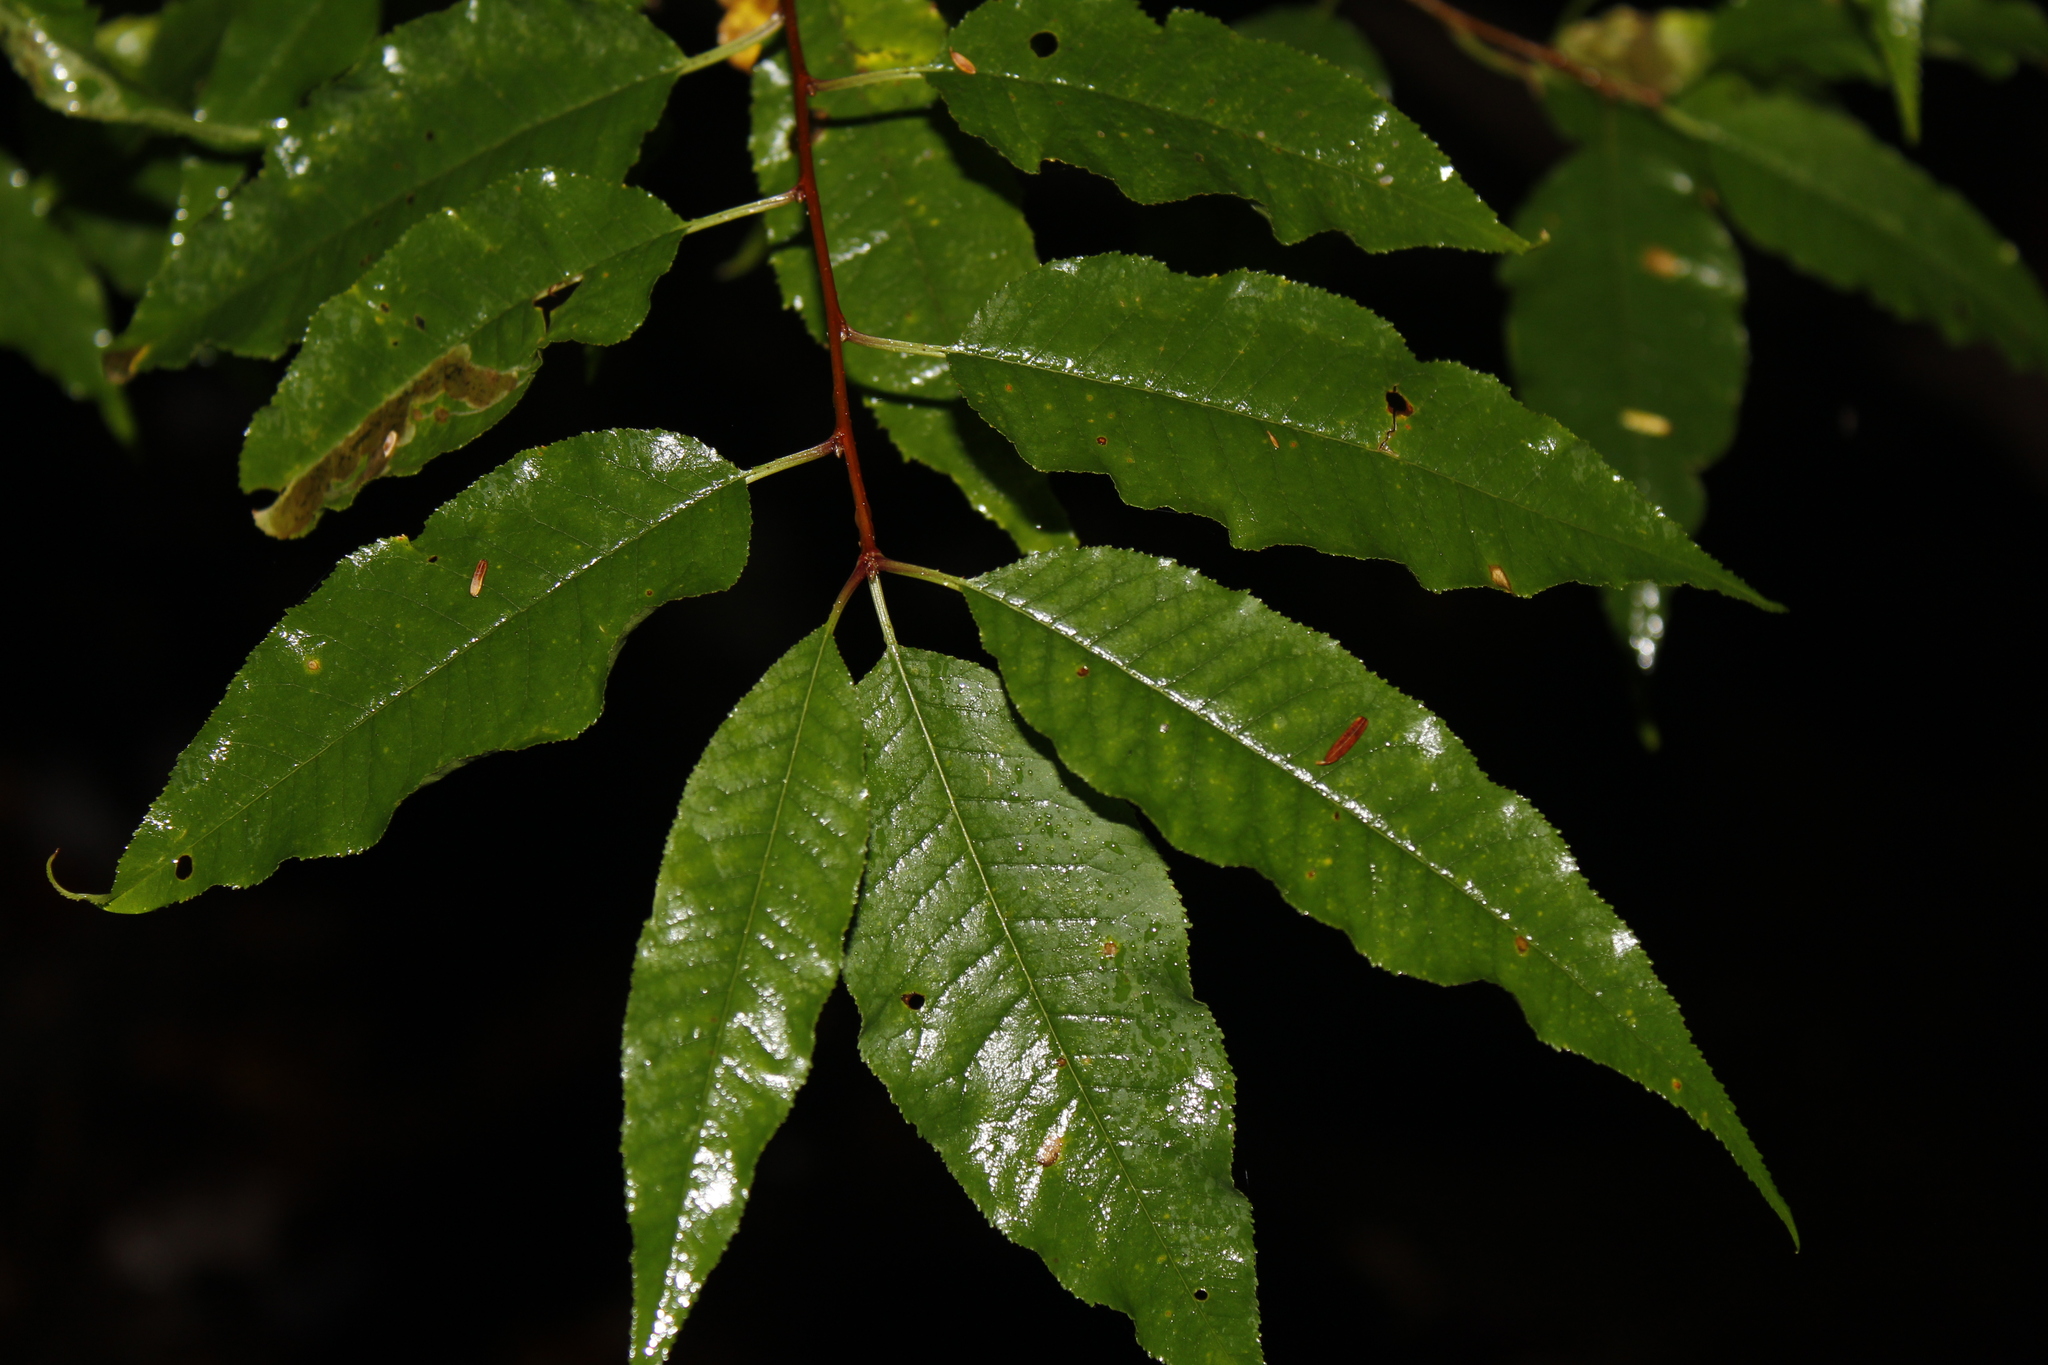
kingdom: Plantae
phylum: Tracheophyta
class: Magnoliopsida
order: Rosales
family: Rosaceae
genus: Prunus
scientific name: Prunus pensylvanica
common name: Pin cherry
